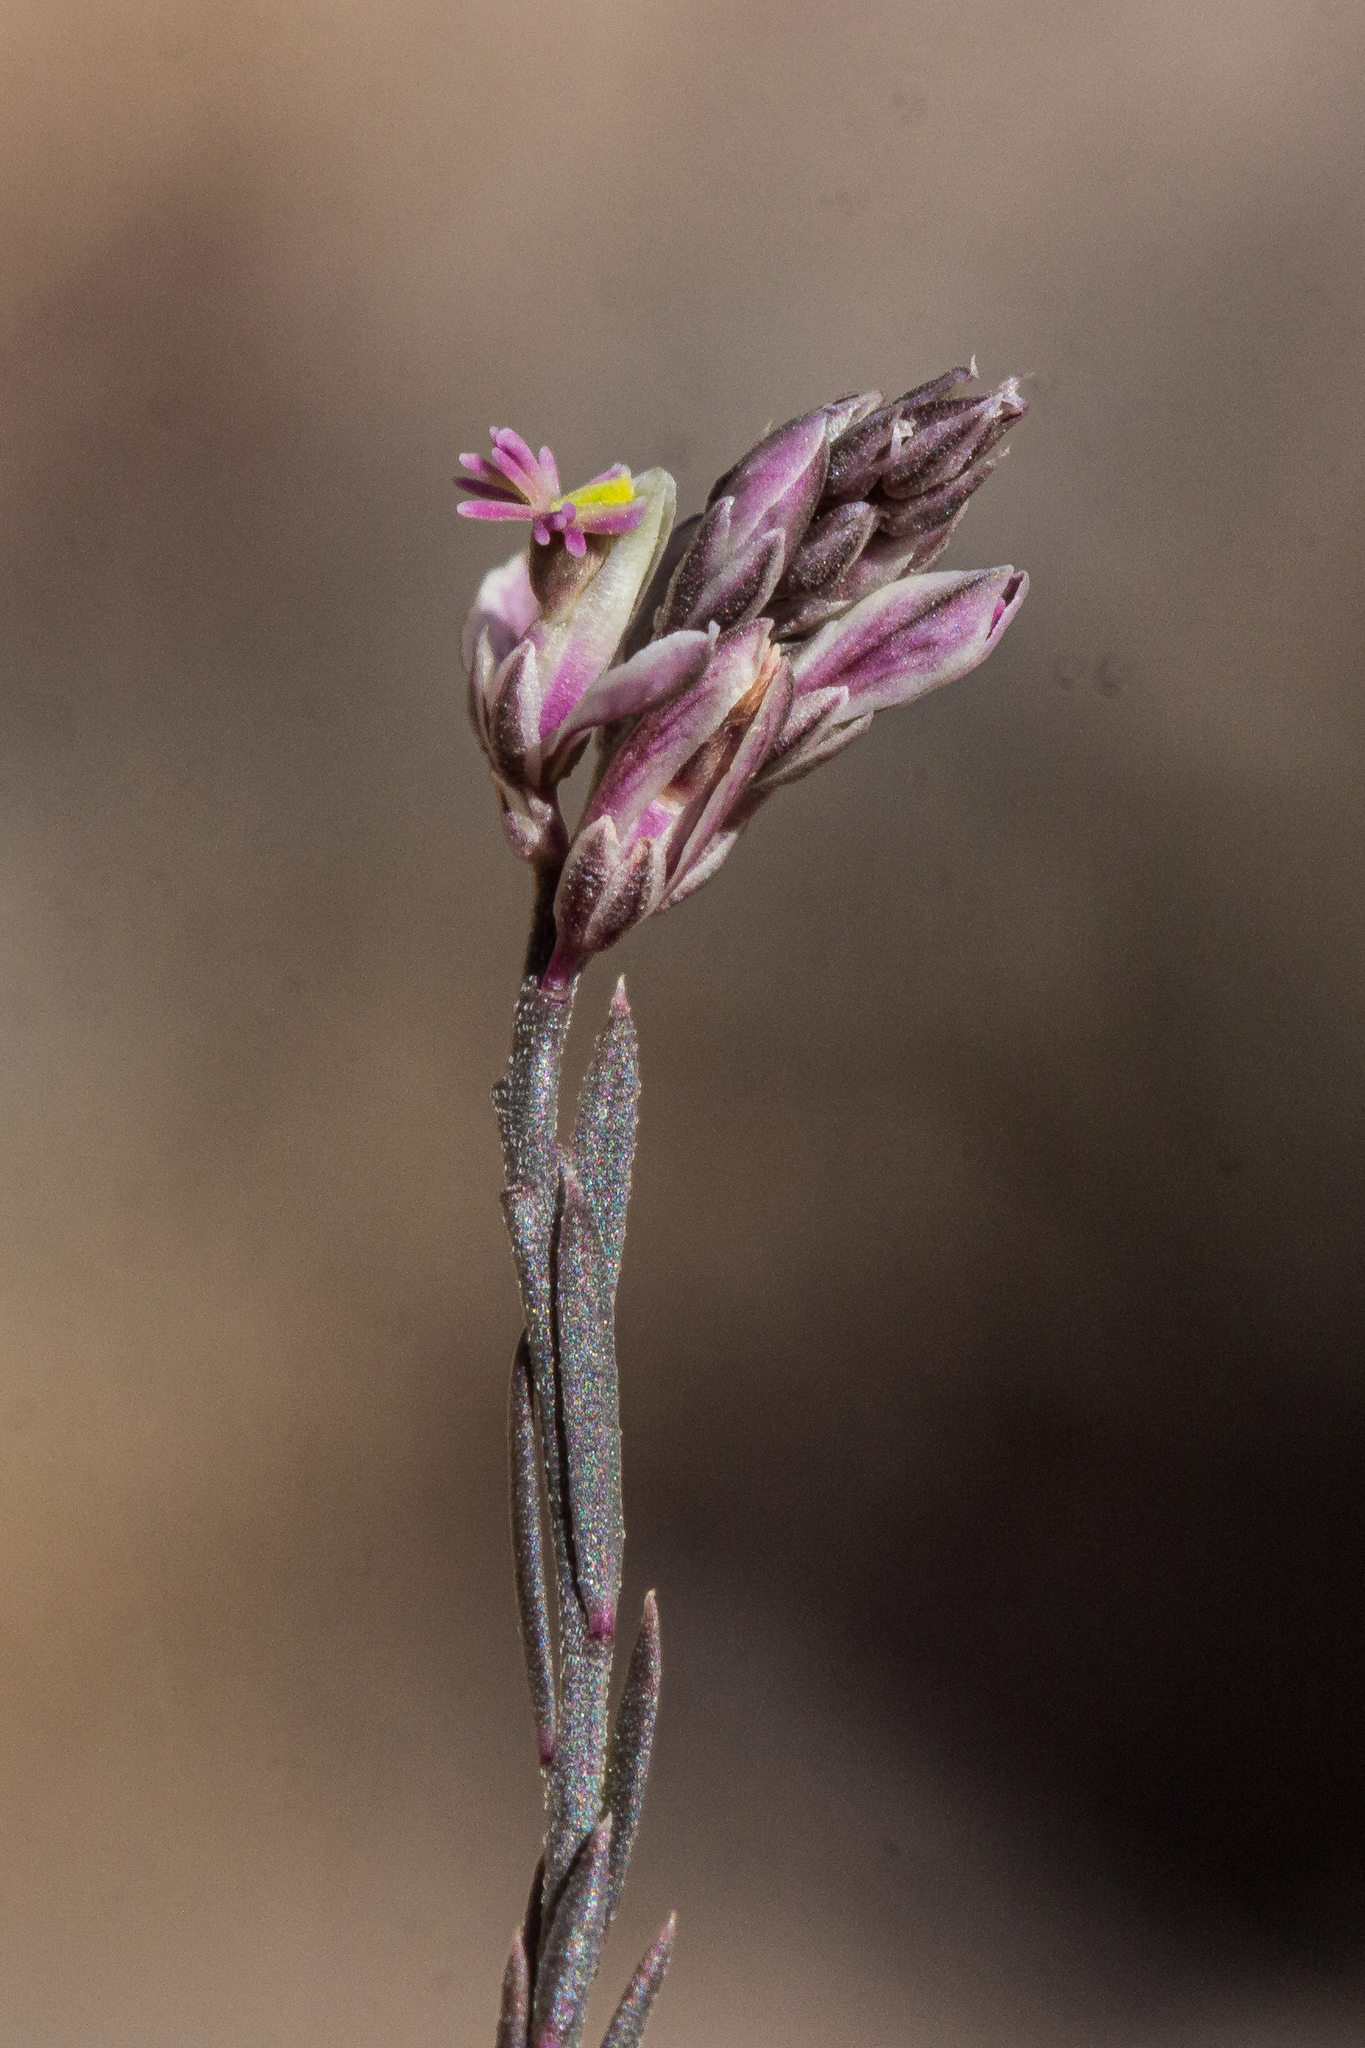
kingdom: Plantae
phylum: Tracheophyta
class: Magnoliopsida
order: Fabales
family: Polygalaceae
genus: Polygala
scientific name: Polygala scoparioides
